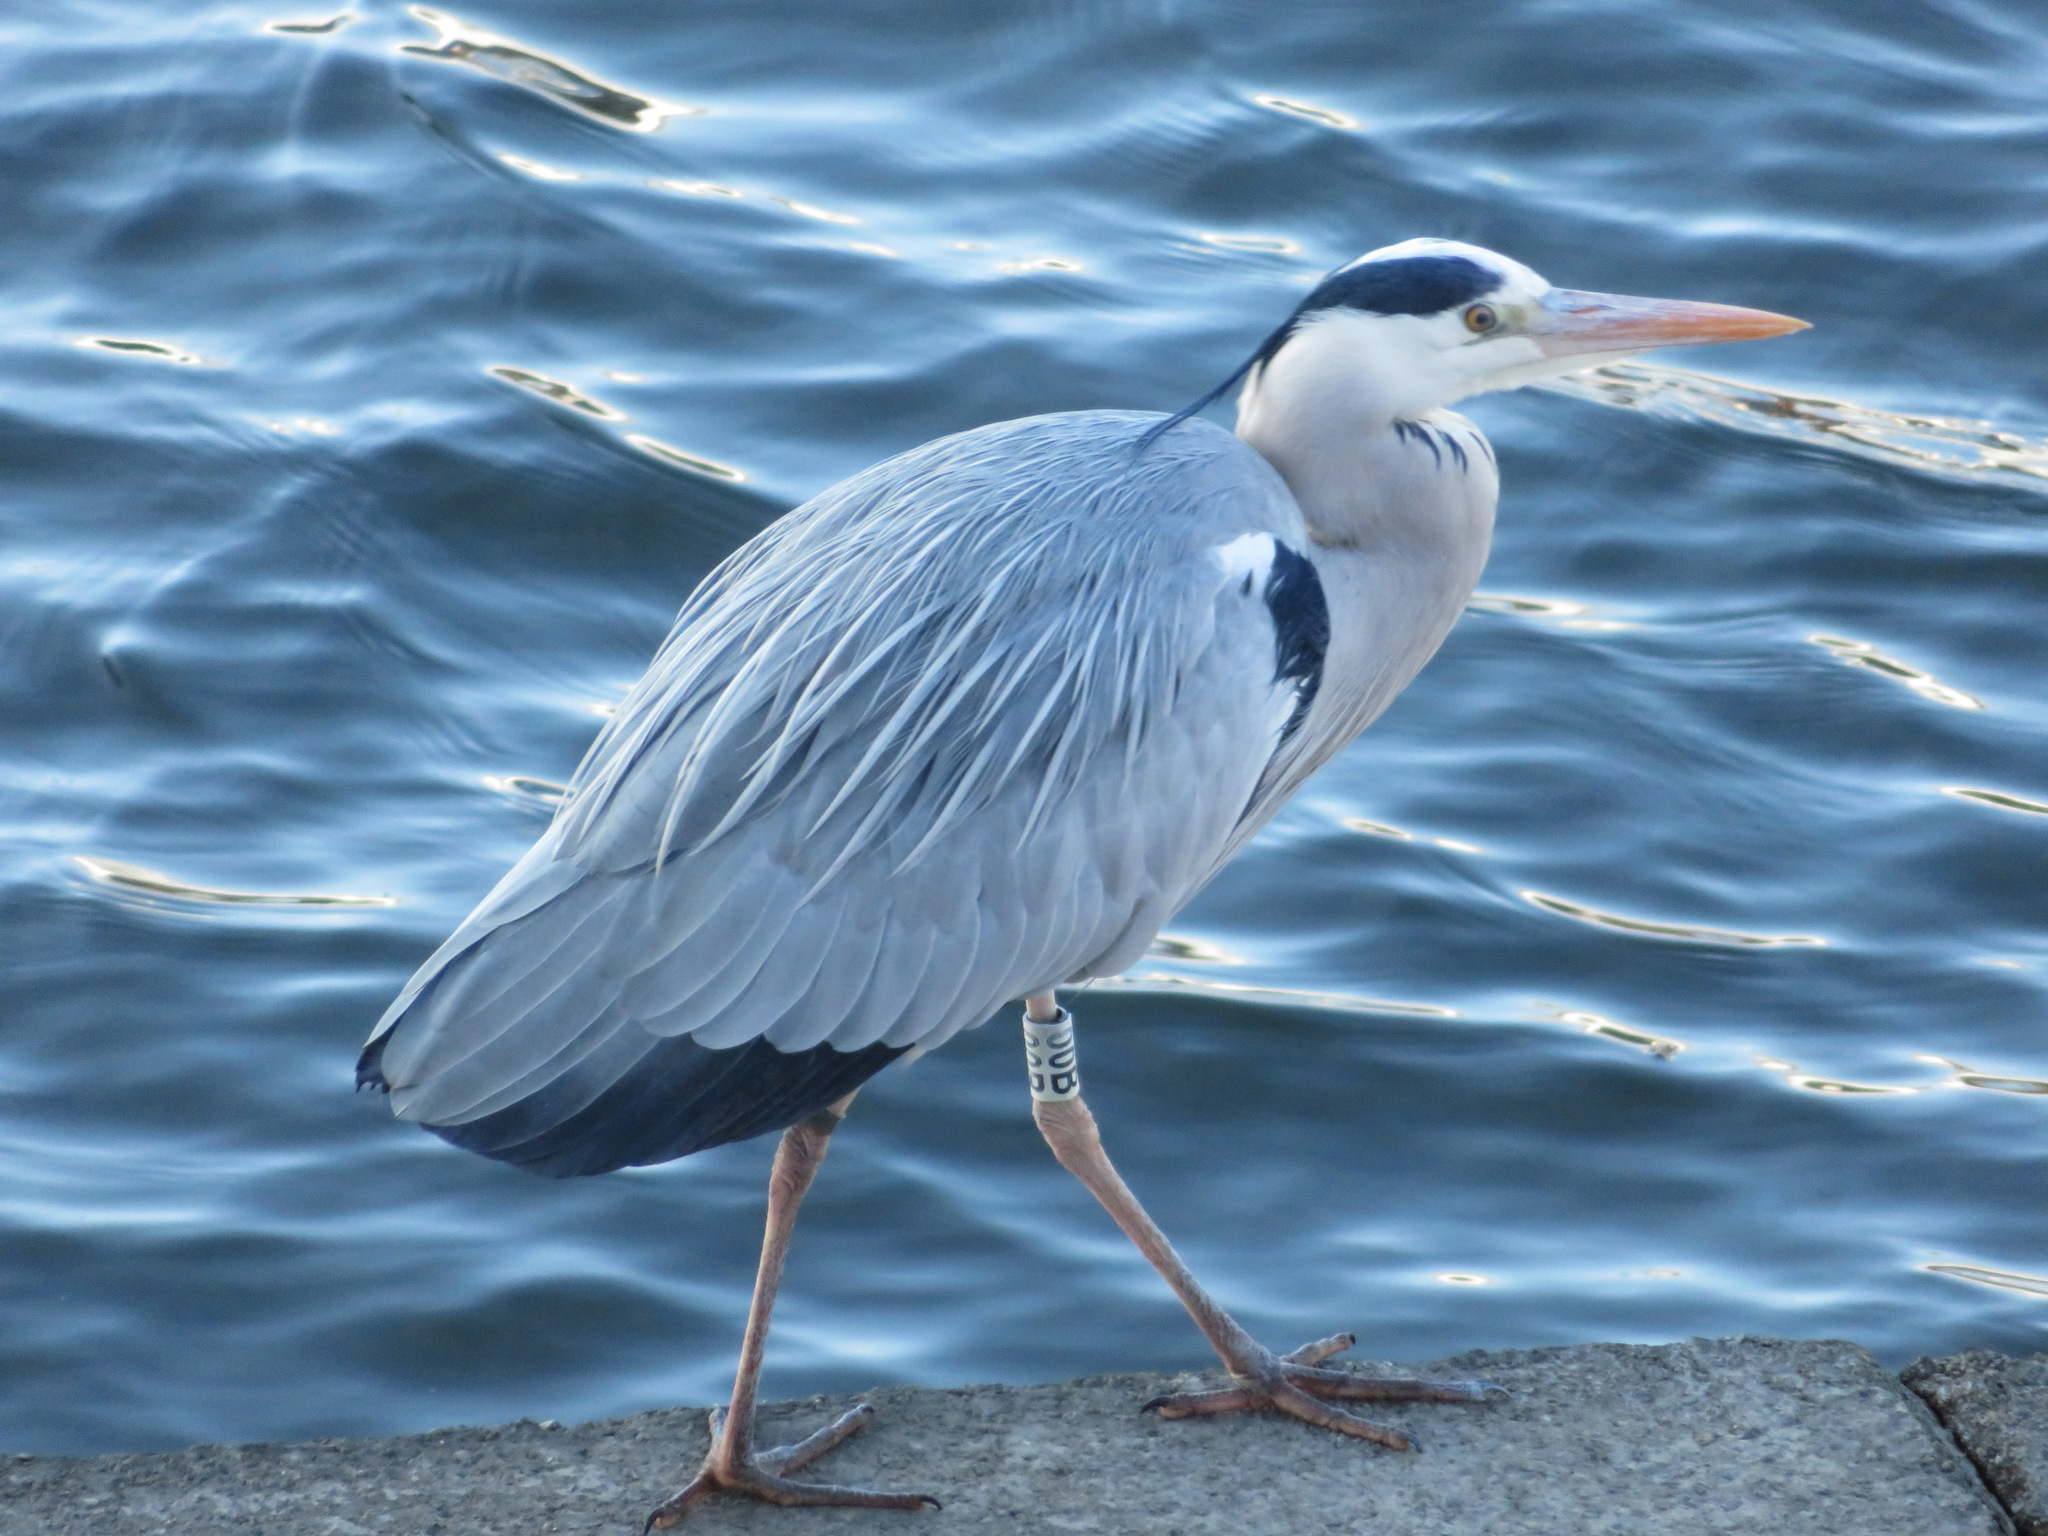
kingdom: Animalia
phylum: Chordata
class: Aves
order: Pelecaniformes
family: Ardeidae
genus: Ardea
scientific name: Ardea cinerea
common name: Grey heron
